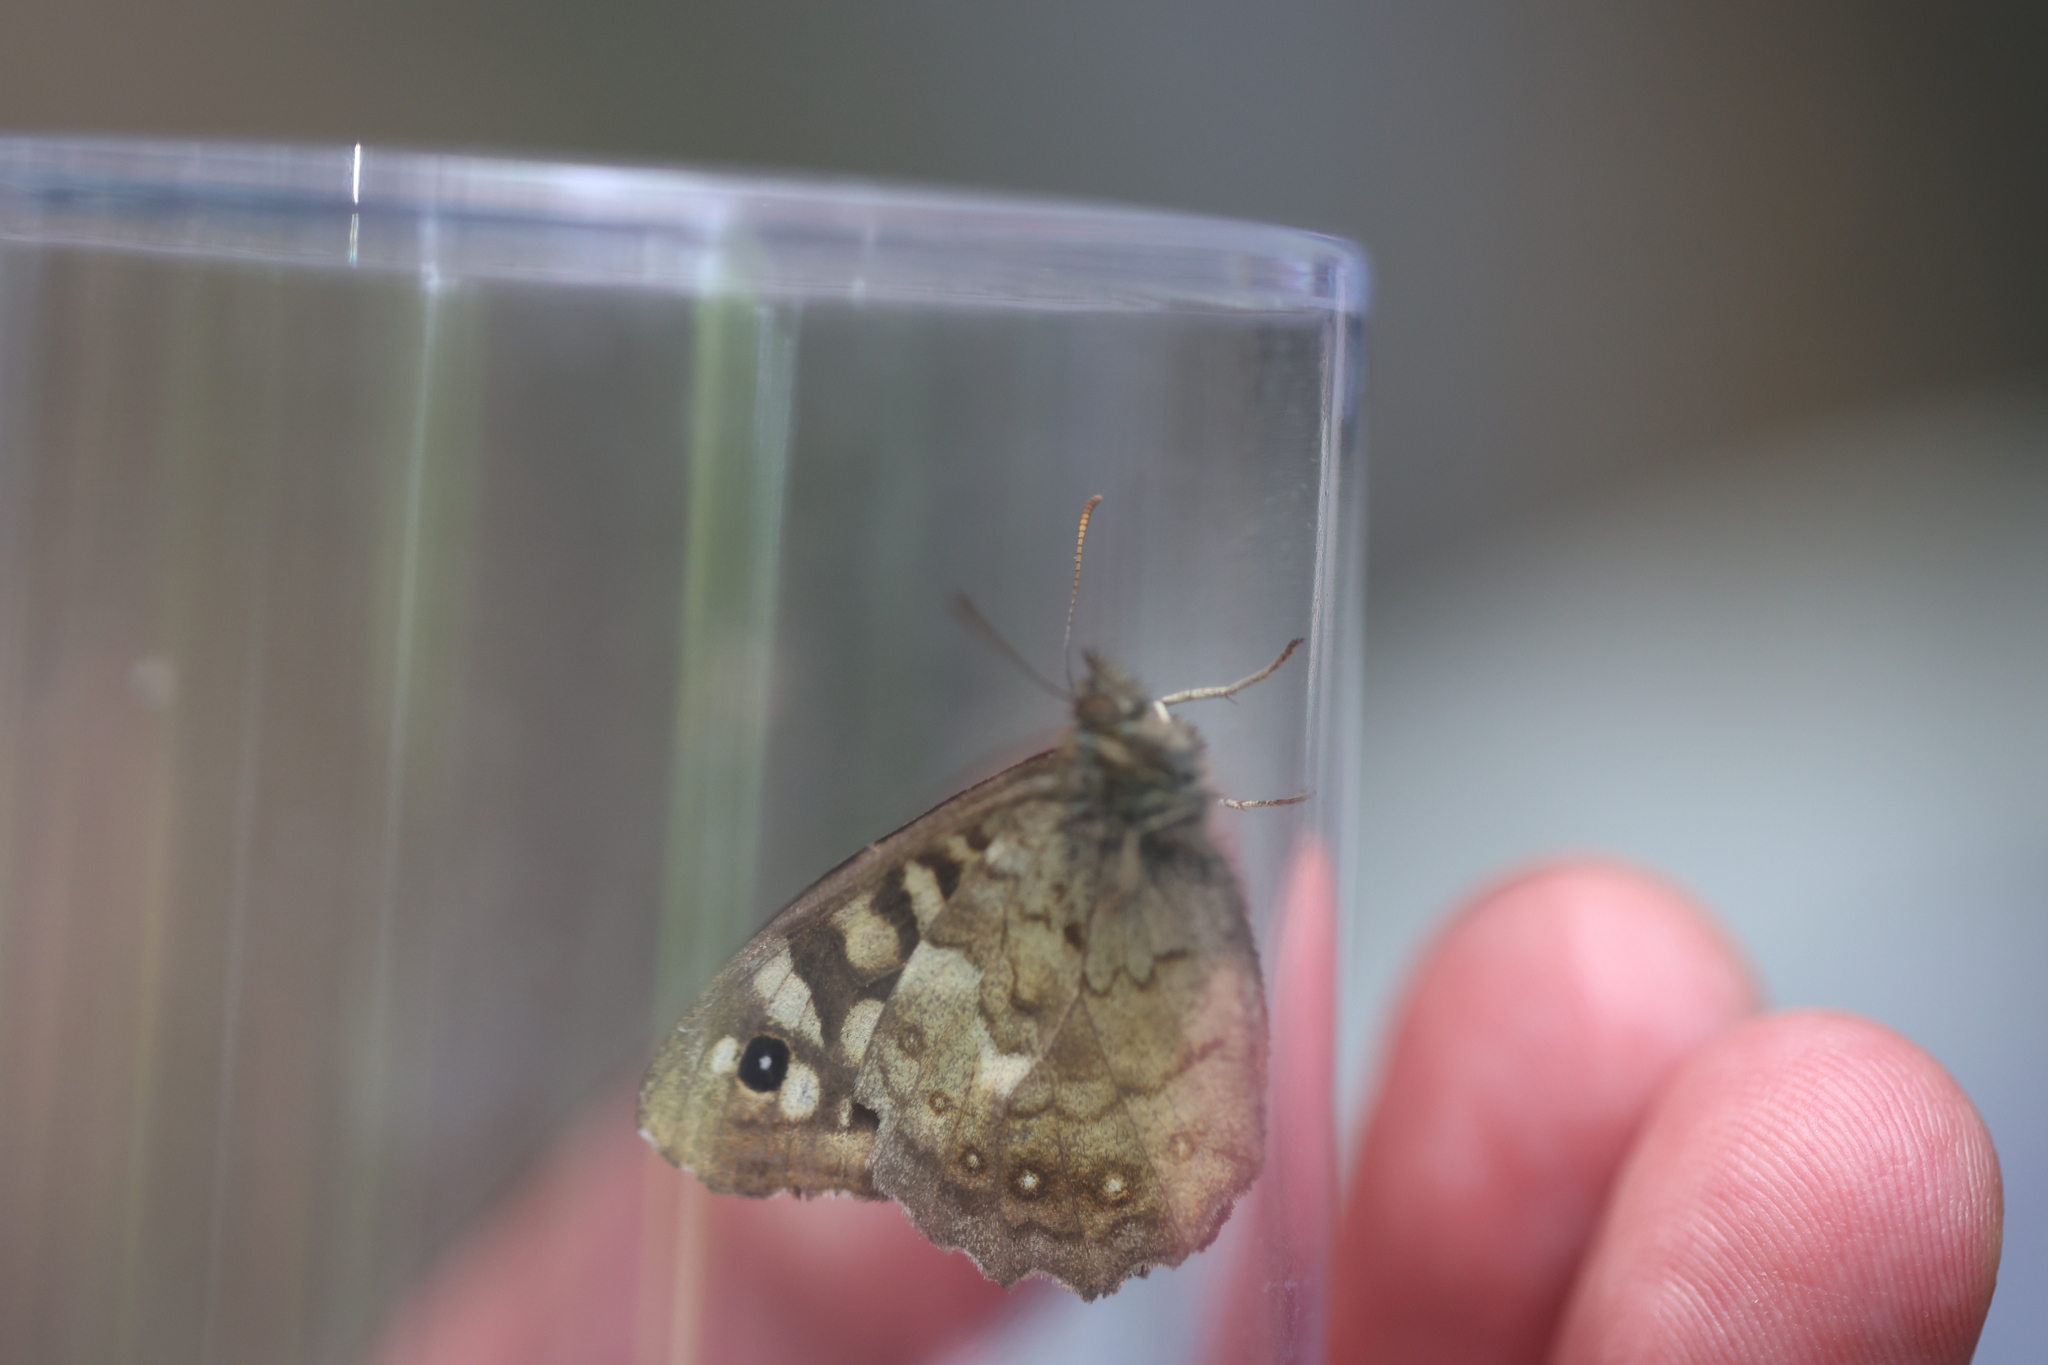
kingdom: Animalia
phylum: Arthropoda
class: Insecta
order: Lepidoptera
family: Nymphalidae
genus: Pararge
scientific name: Pararge aegeria
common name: Speckled wood
